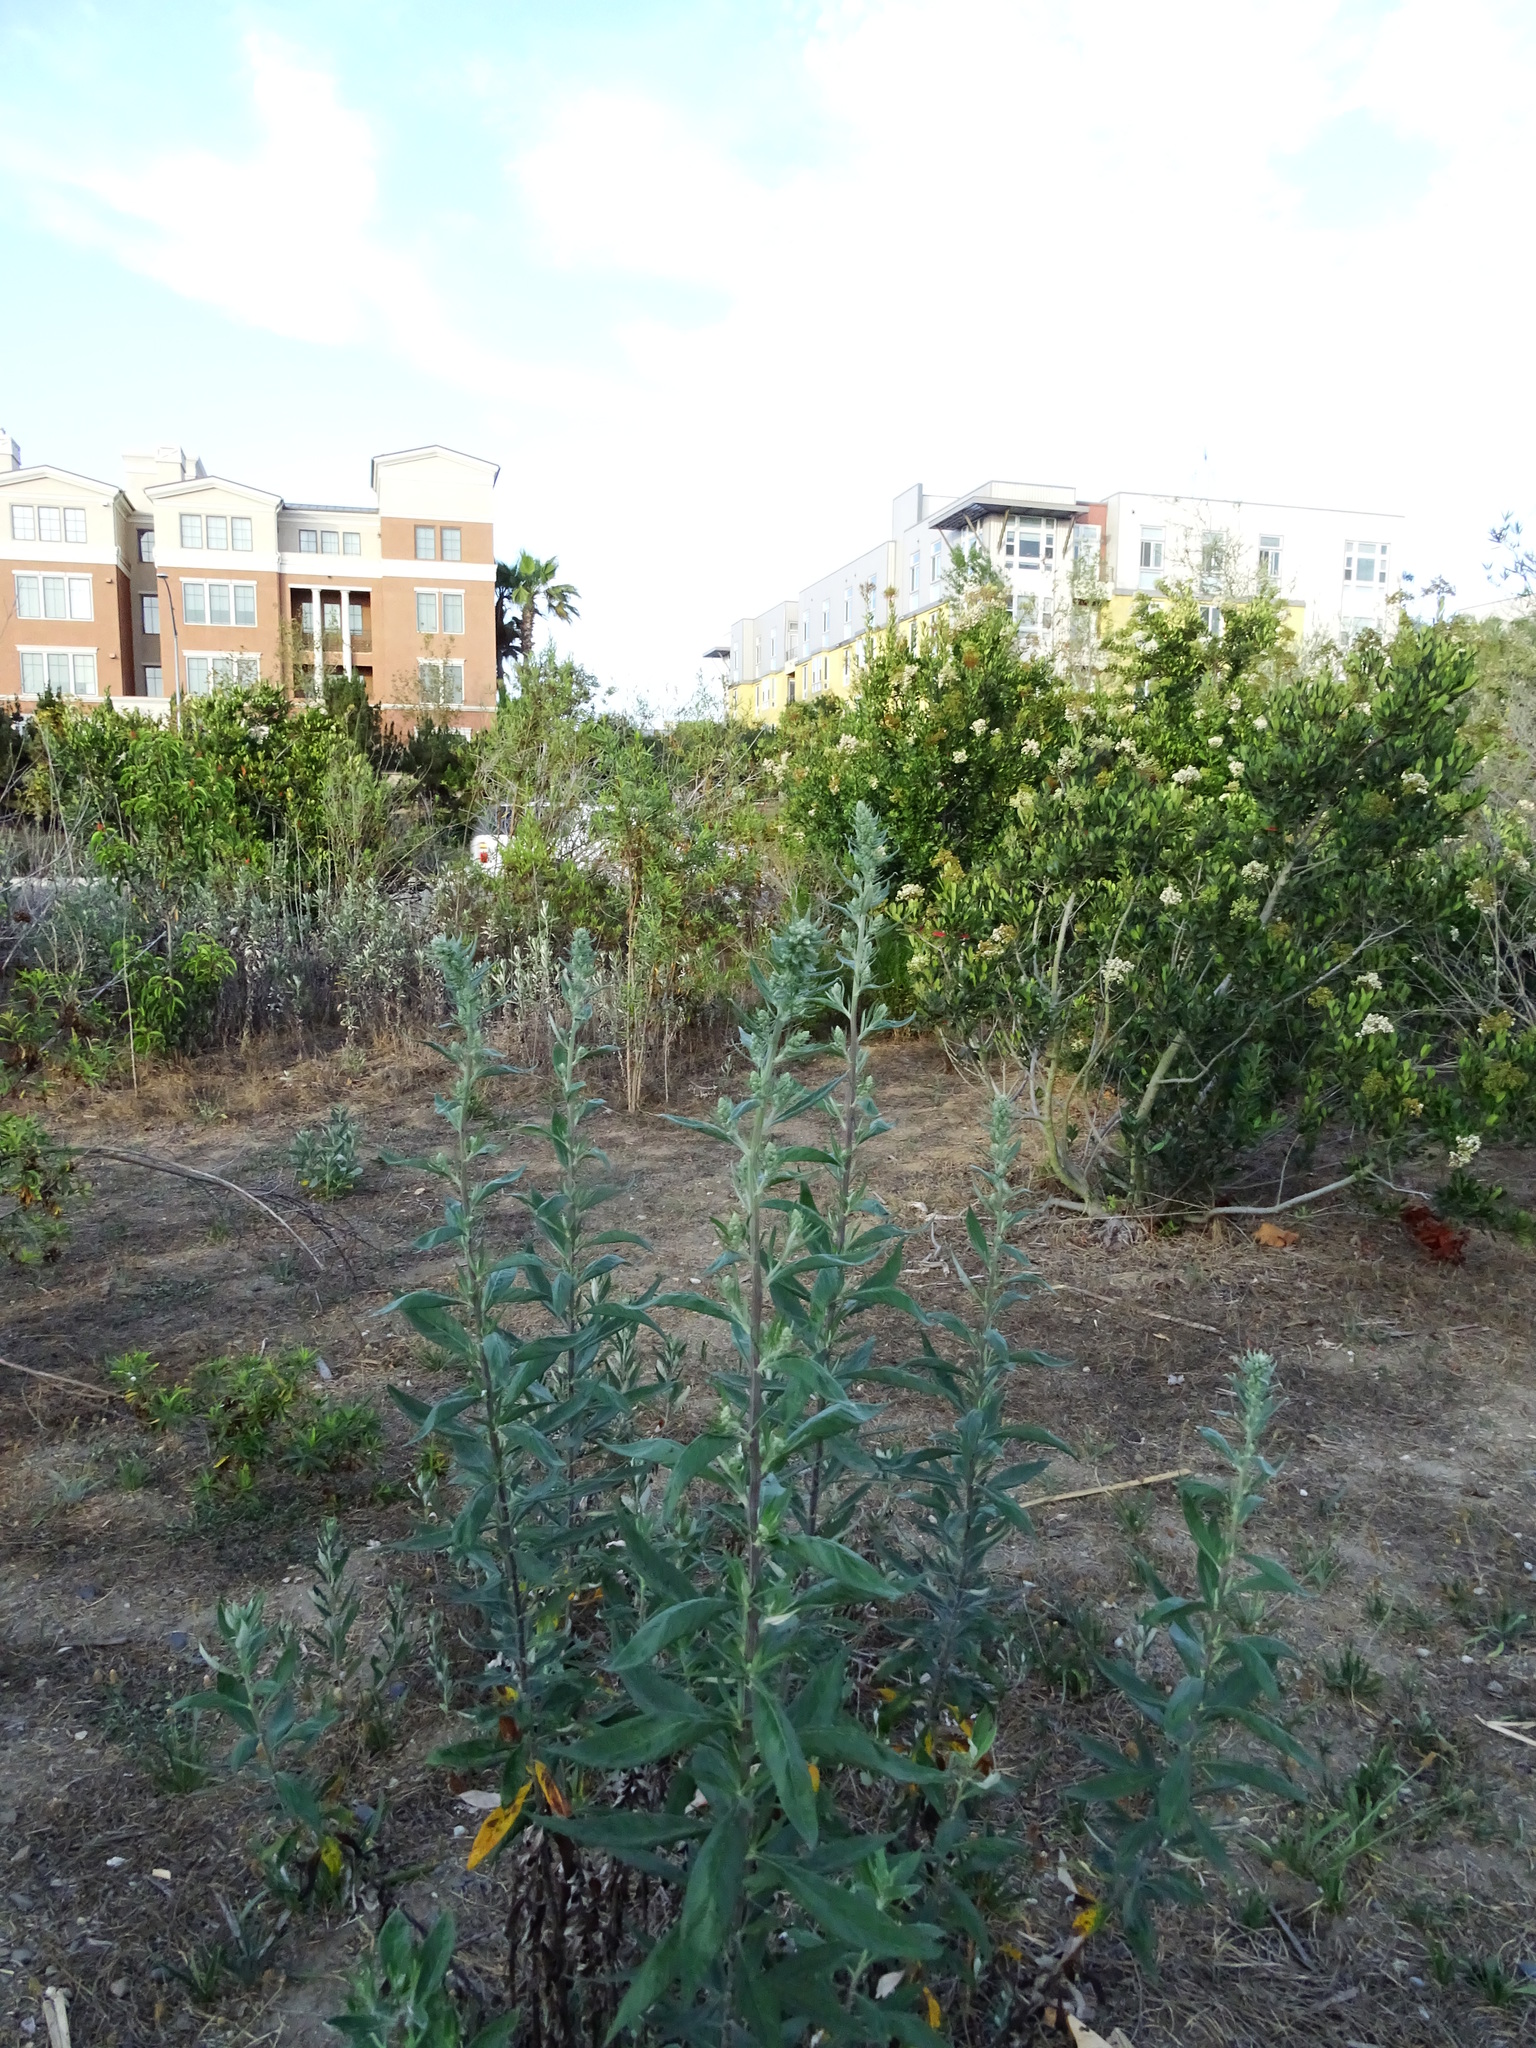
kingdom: Plantae
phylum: Tracheophyta
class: Magnoliopsida
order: Asterales
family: Asteraceae
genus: Artemisia
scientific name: Artemisia douglasiana
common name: Northwest mugwort
